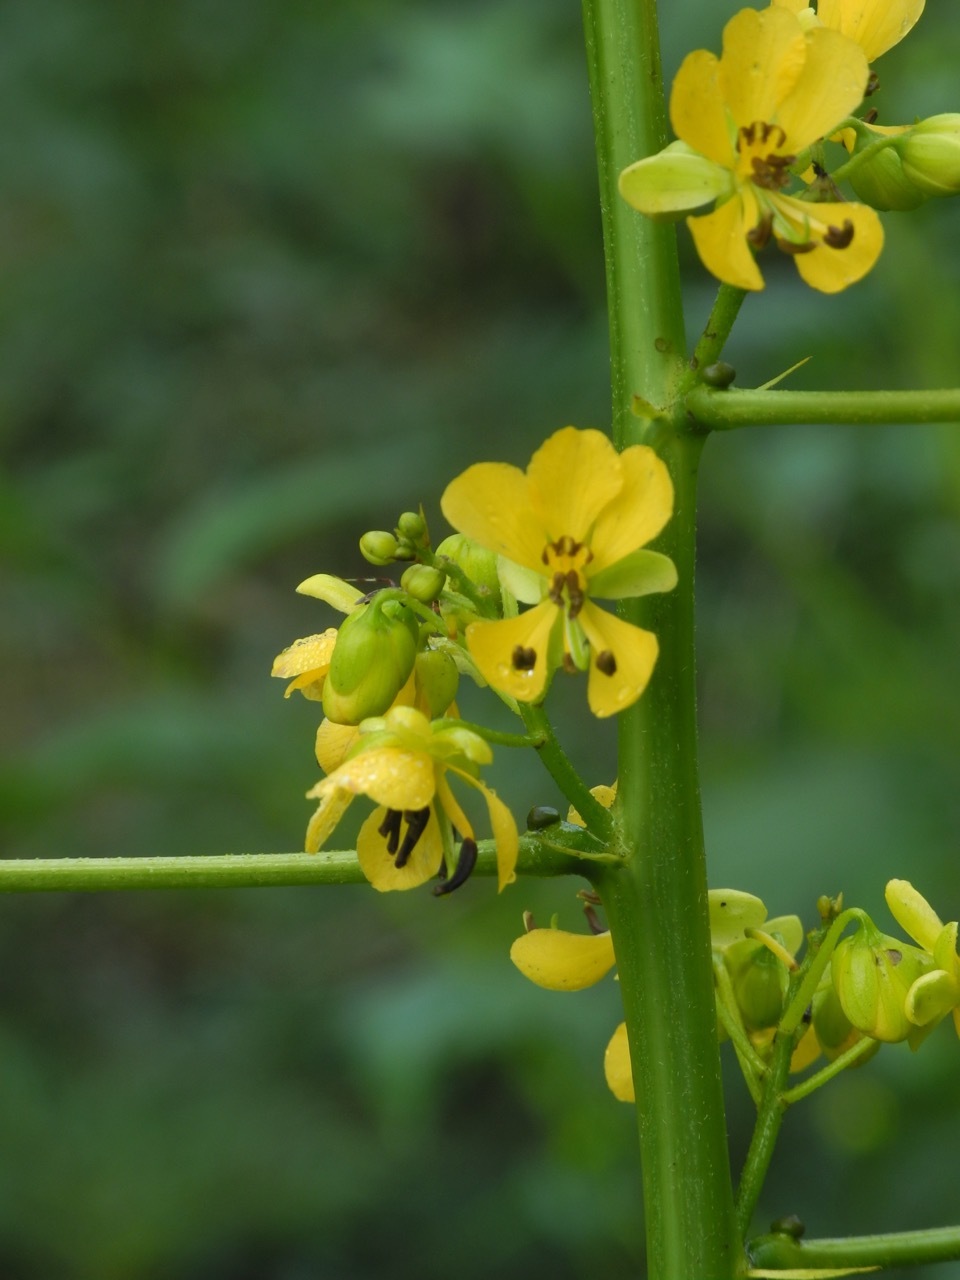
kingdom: Plantae
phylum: Tracheophyta
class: Magnoliopsida
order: Fabales
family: Fabaceae
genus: Senna
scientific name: Senna marilandica
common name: American senna
